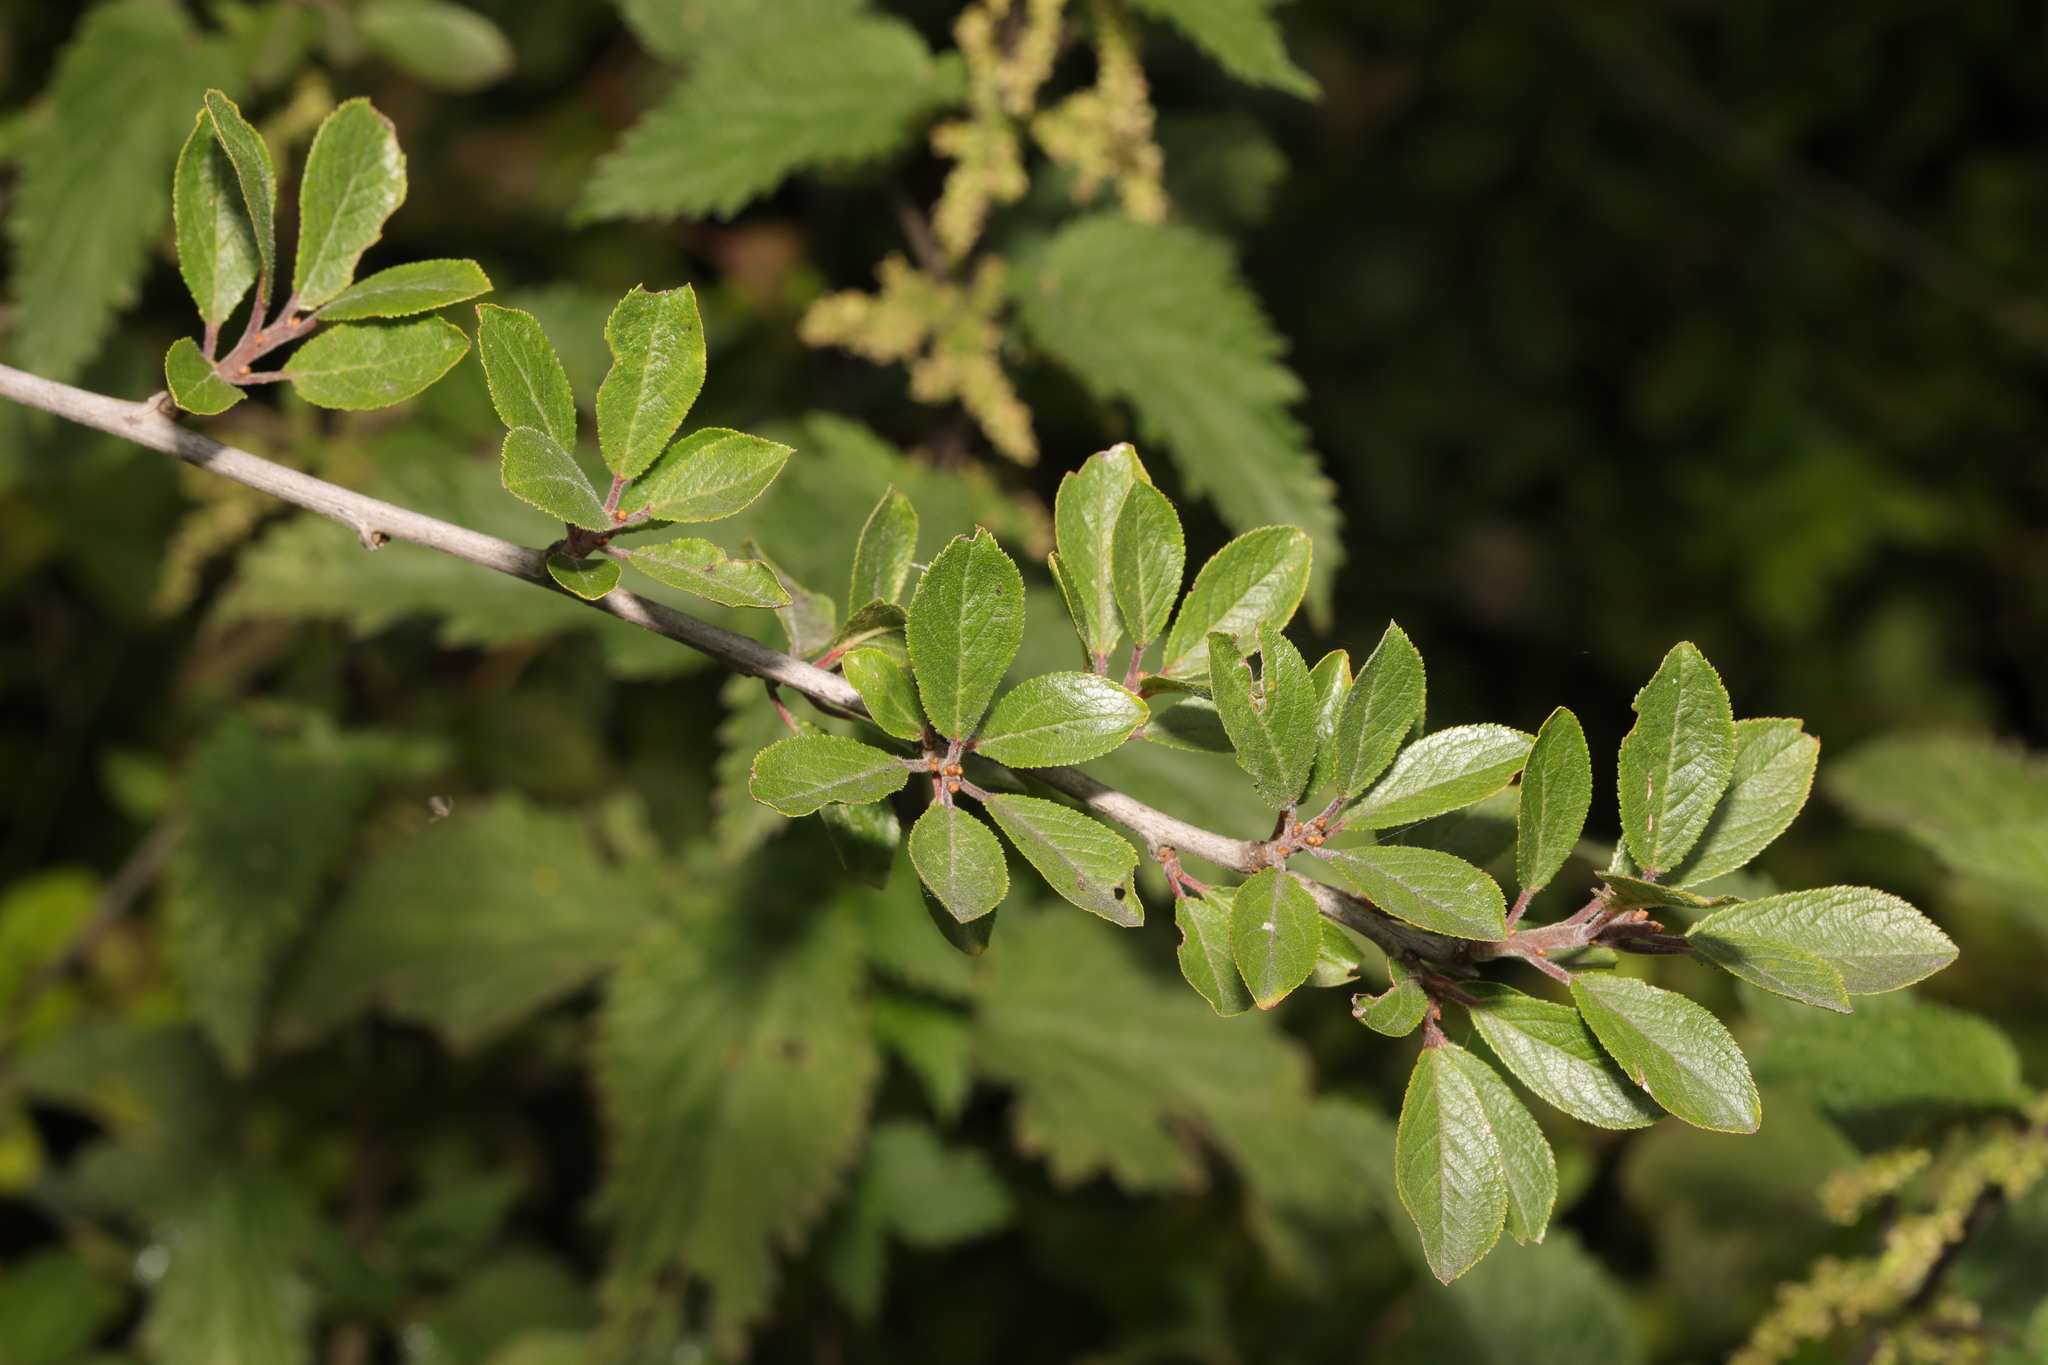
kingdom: Plantae
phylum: Tracheophyta
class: Magnoliopsida
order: Rosales
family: Rosaceae
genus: Prunus
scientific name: Prunus spinosa
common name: Blackthorn
